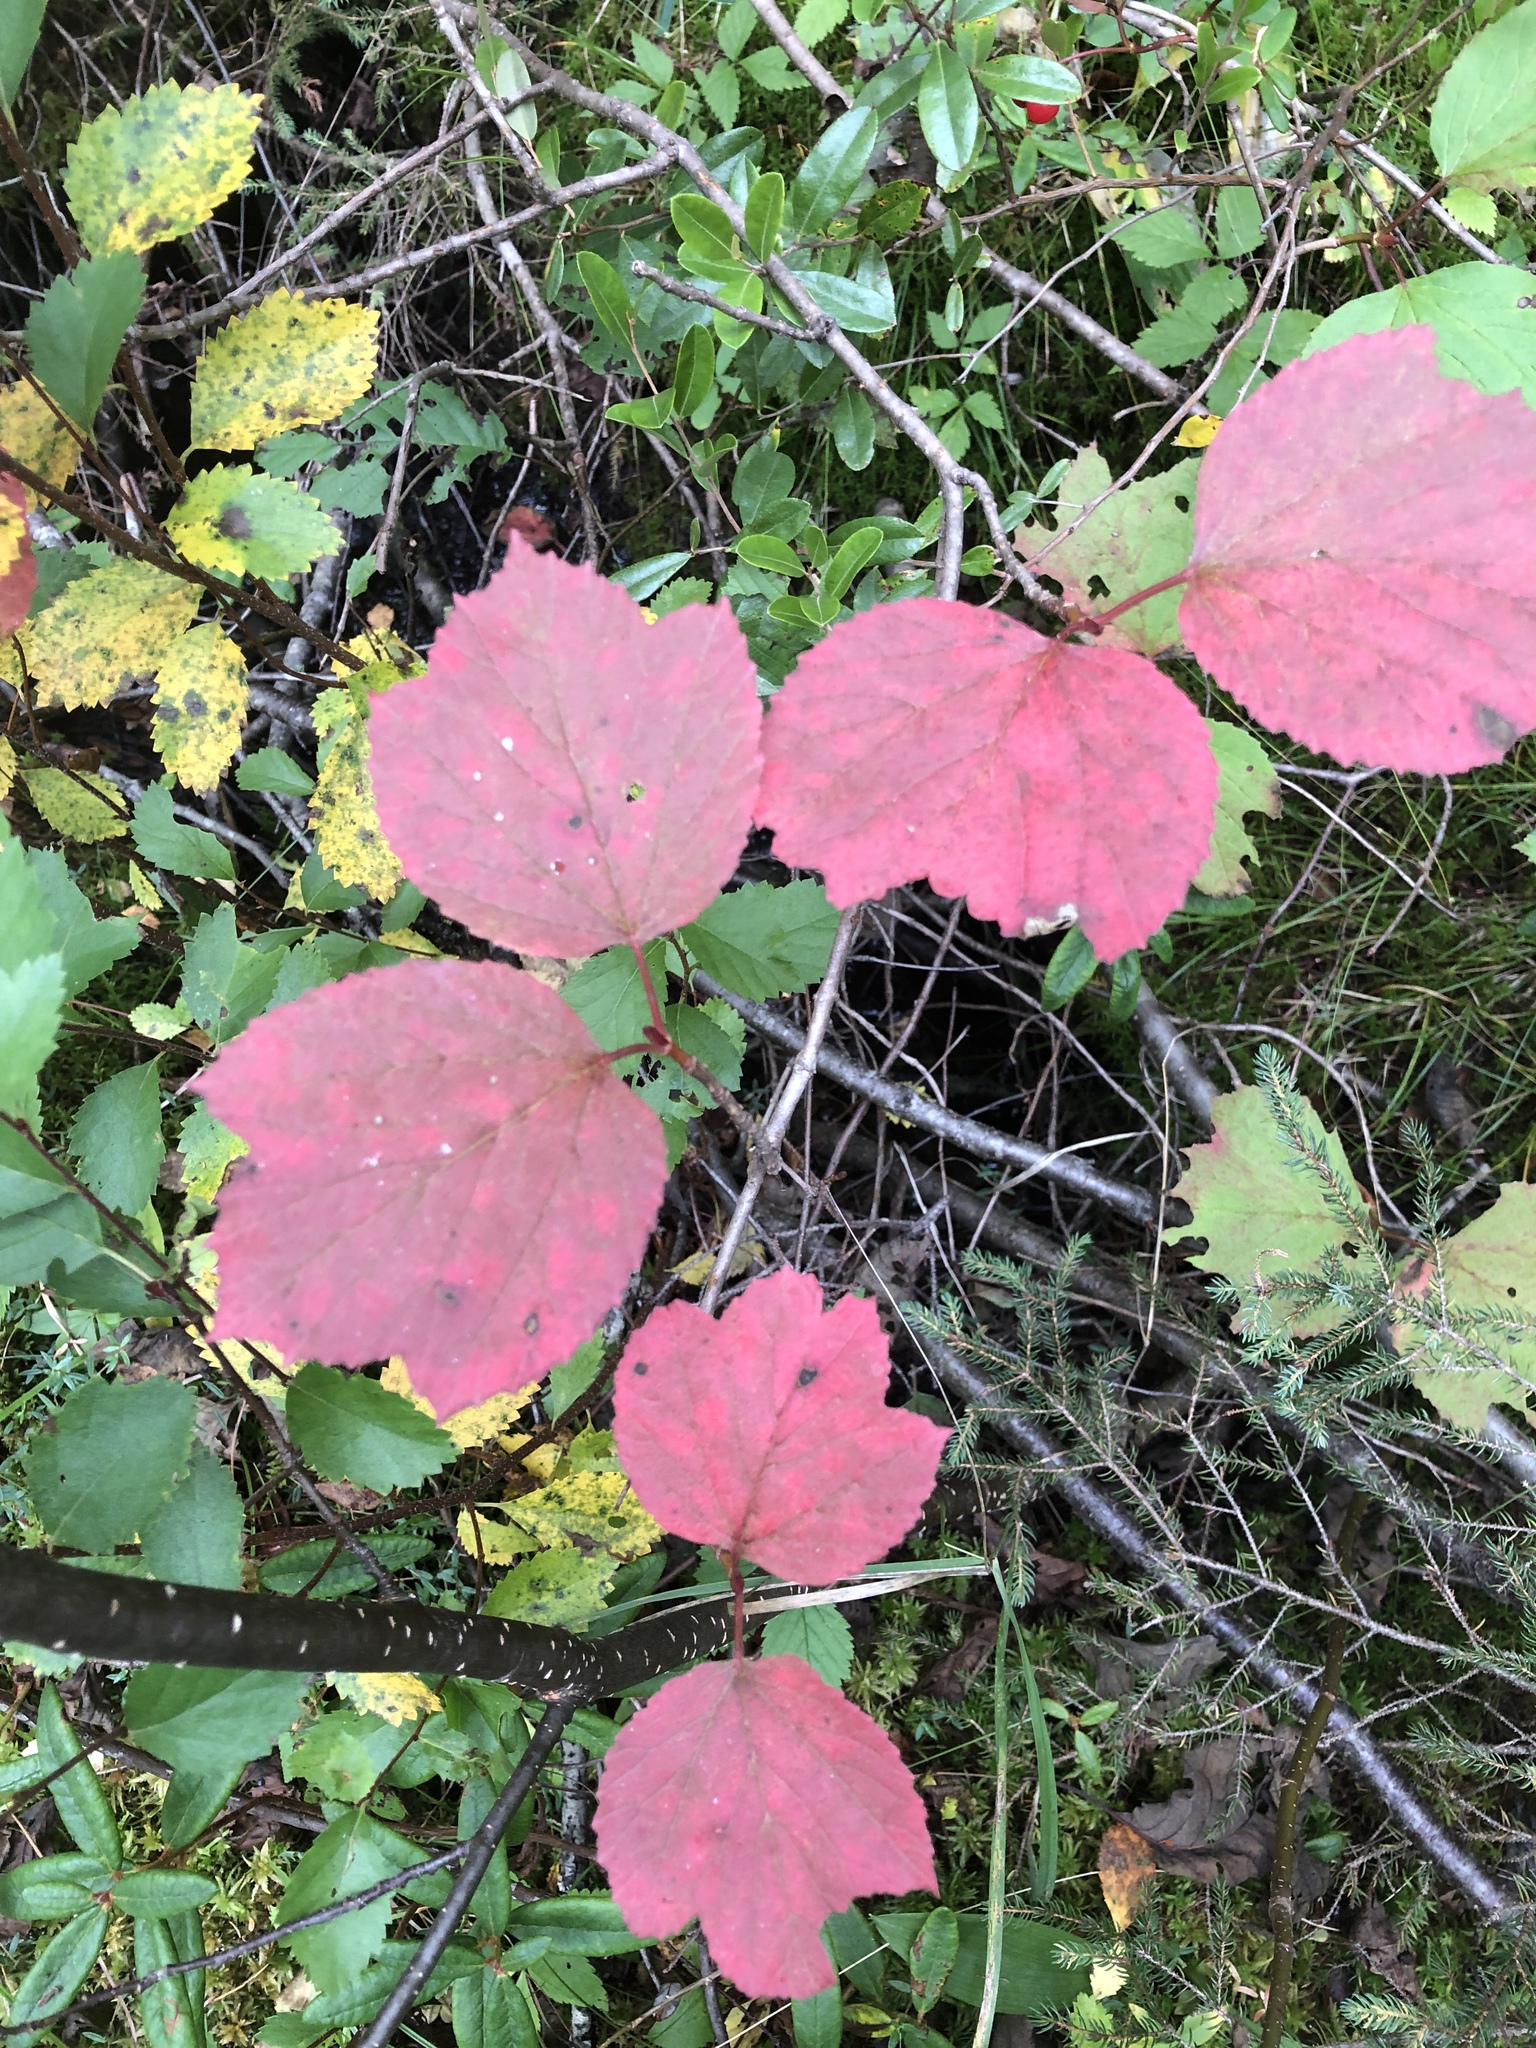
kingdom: Plantae
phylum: Tracheophyta
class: Magnoliopsida
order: Dipsacales
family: Viburnaceae
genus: Viburnum
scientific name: Viburnum edule
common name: Mooseberry
